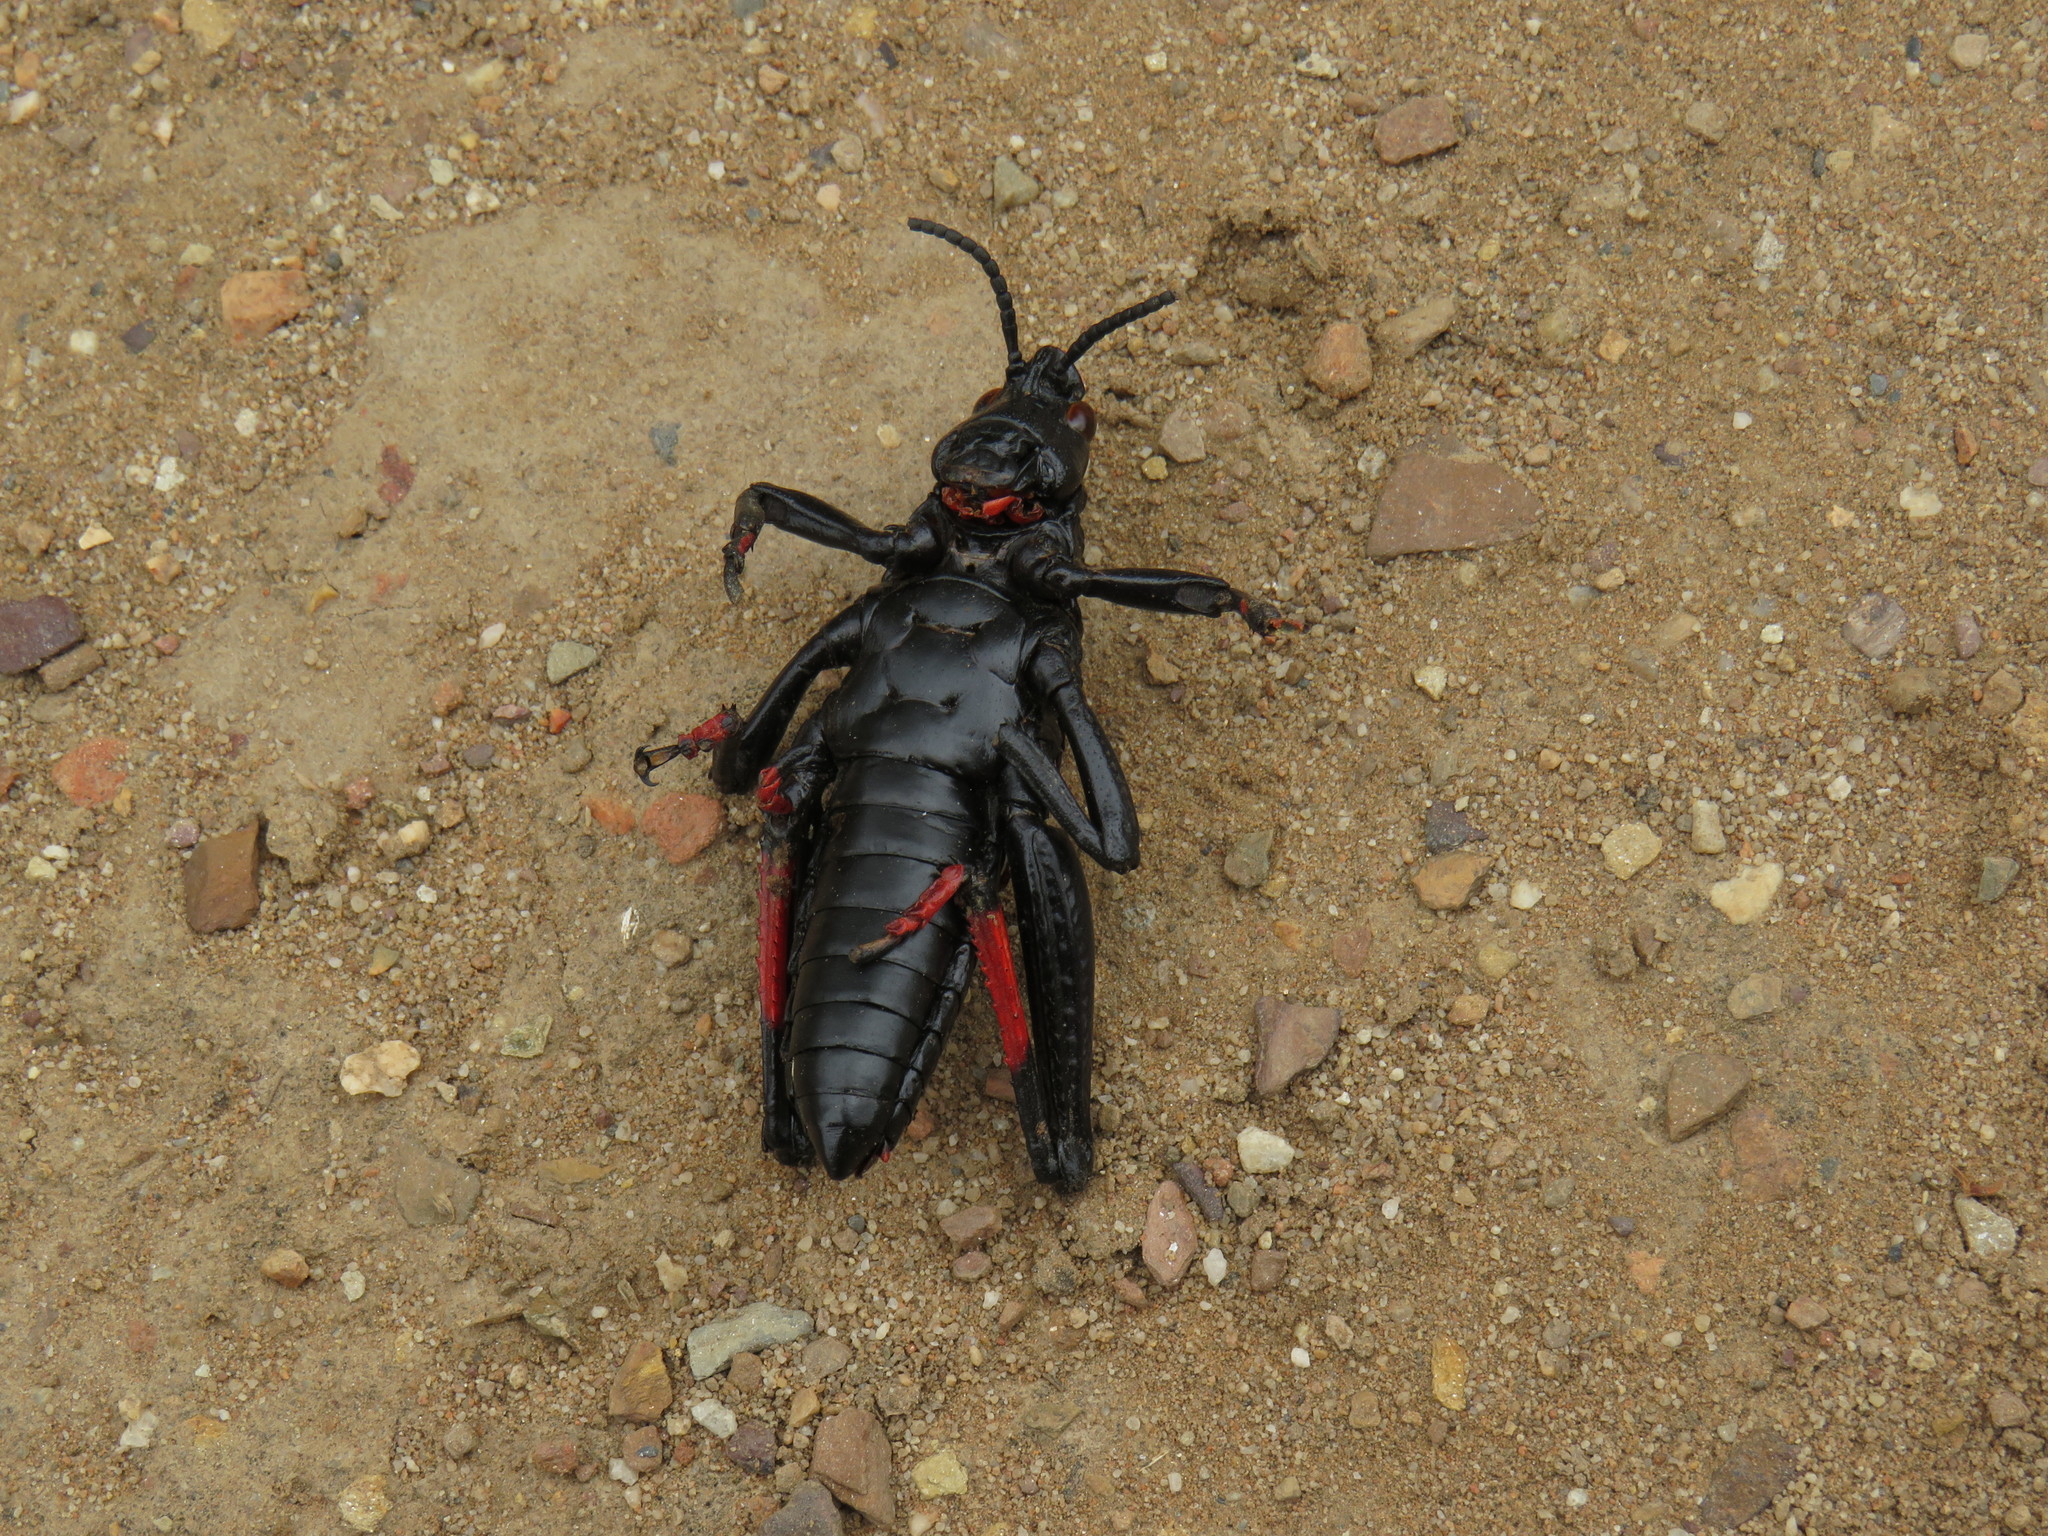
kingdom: Animalia
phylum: Arthropoda
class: Insecta
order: Orthoptera
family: Pyrgomorphidae
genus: Dictyophorus
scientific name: Dictyophorus spumans
